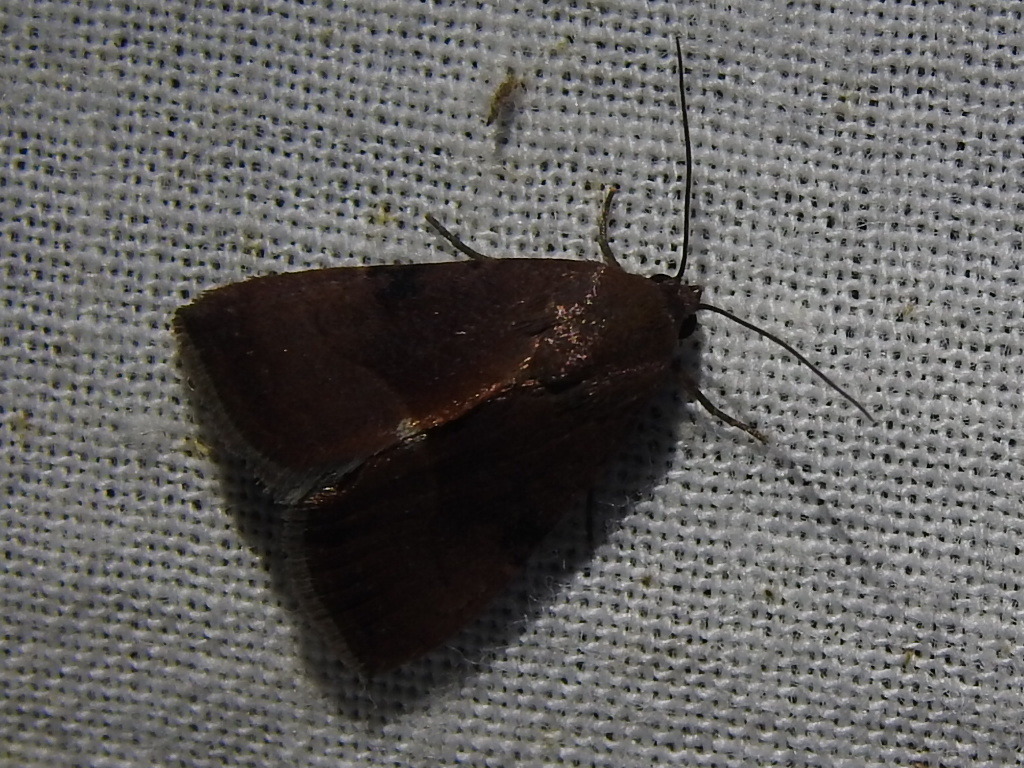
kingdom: Animalia
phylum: Arthropoda
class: Insecta
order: Lepidoptera
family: Noctuidae
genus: Galgula
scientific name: Galgula partita
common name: Wedgeling
